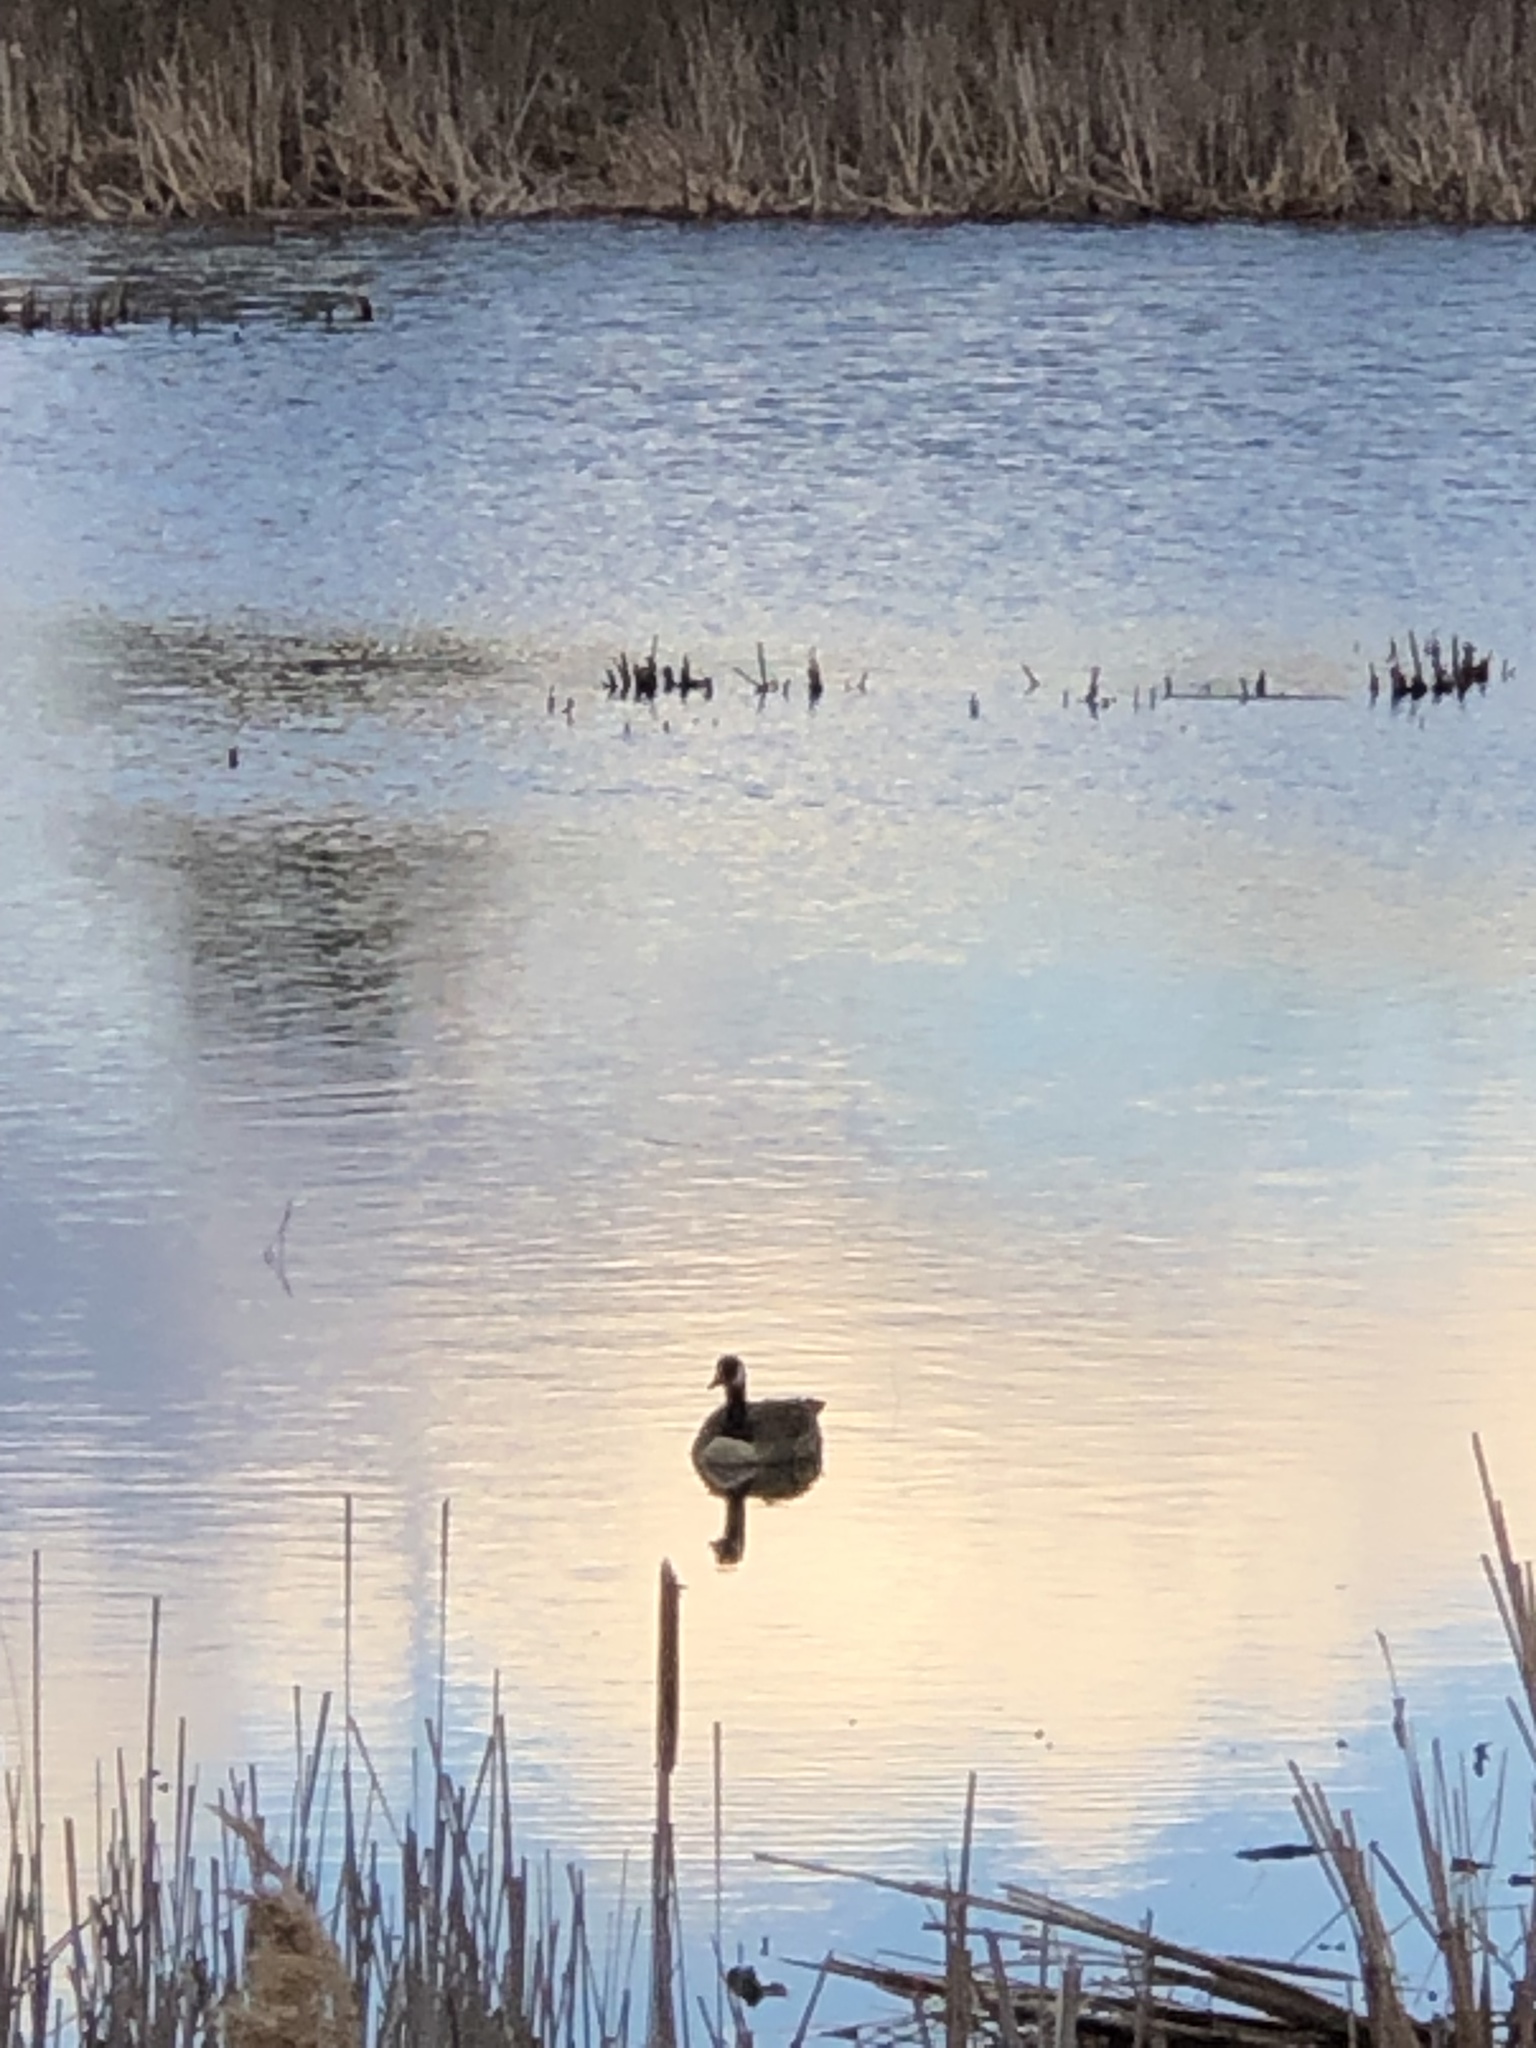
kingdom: Animalia
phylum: Chordata
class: Aves
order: Anseriformes
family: Anatidae
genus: Branta
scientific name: Branta canadensis
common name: Canada goose
